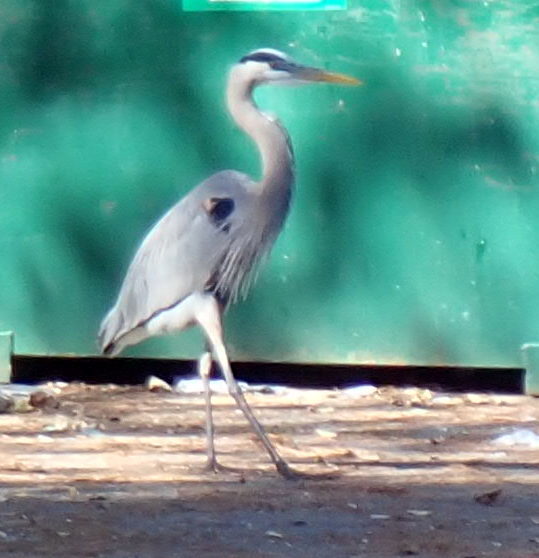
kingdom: Animalia
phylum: Chordata
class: Aves
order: Pelecaniformes
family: Ardeidae
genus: Ardea
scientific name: Ardea herodias
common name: Great blue heron
